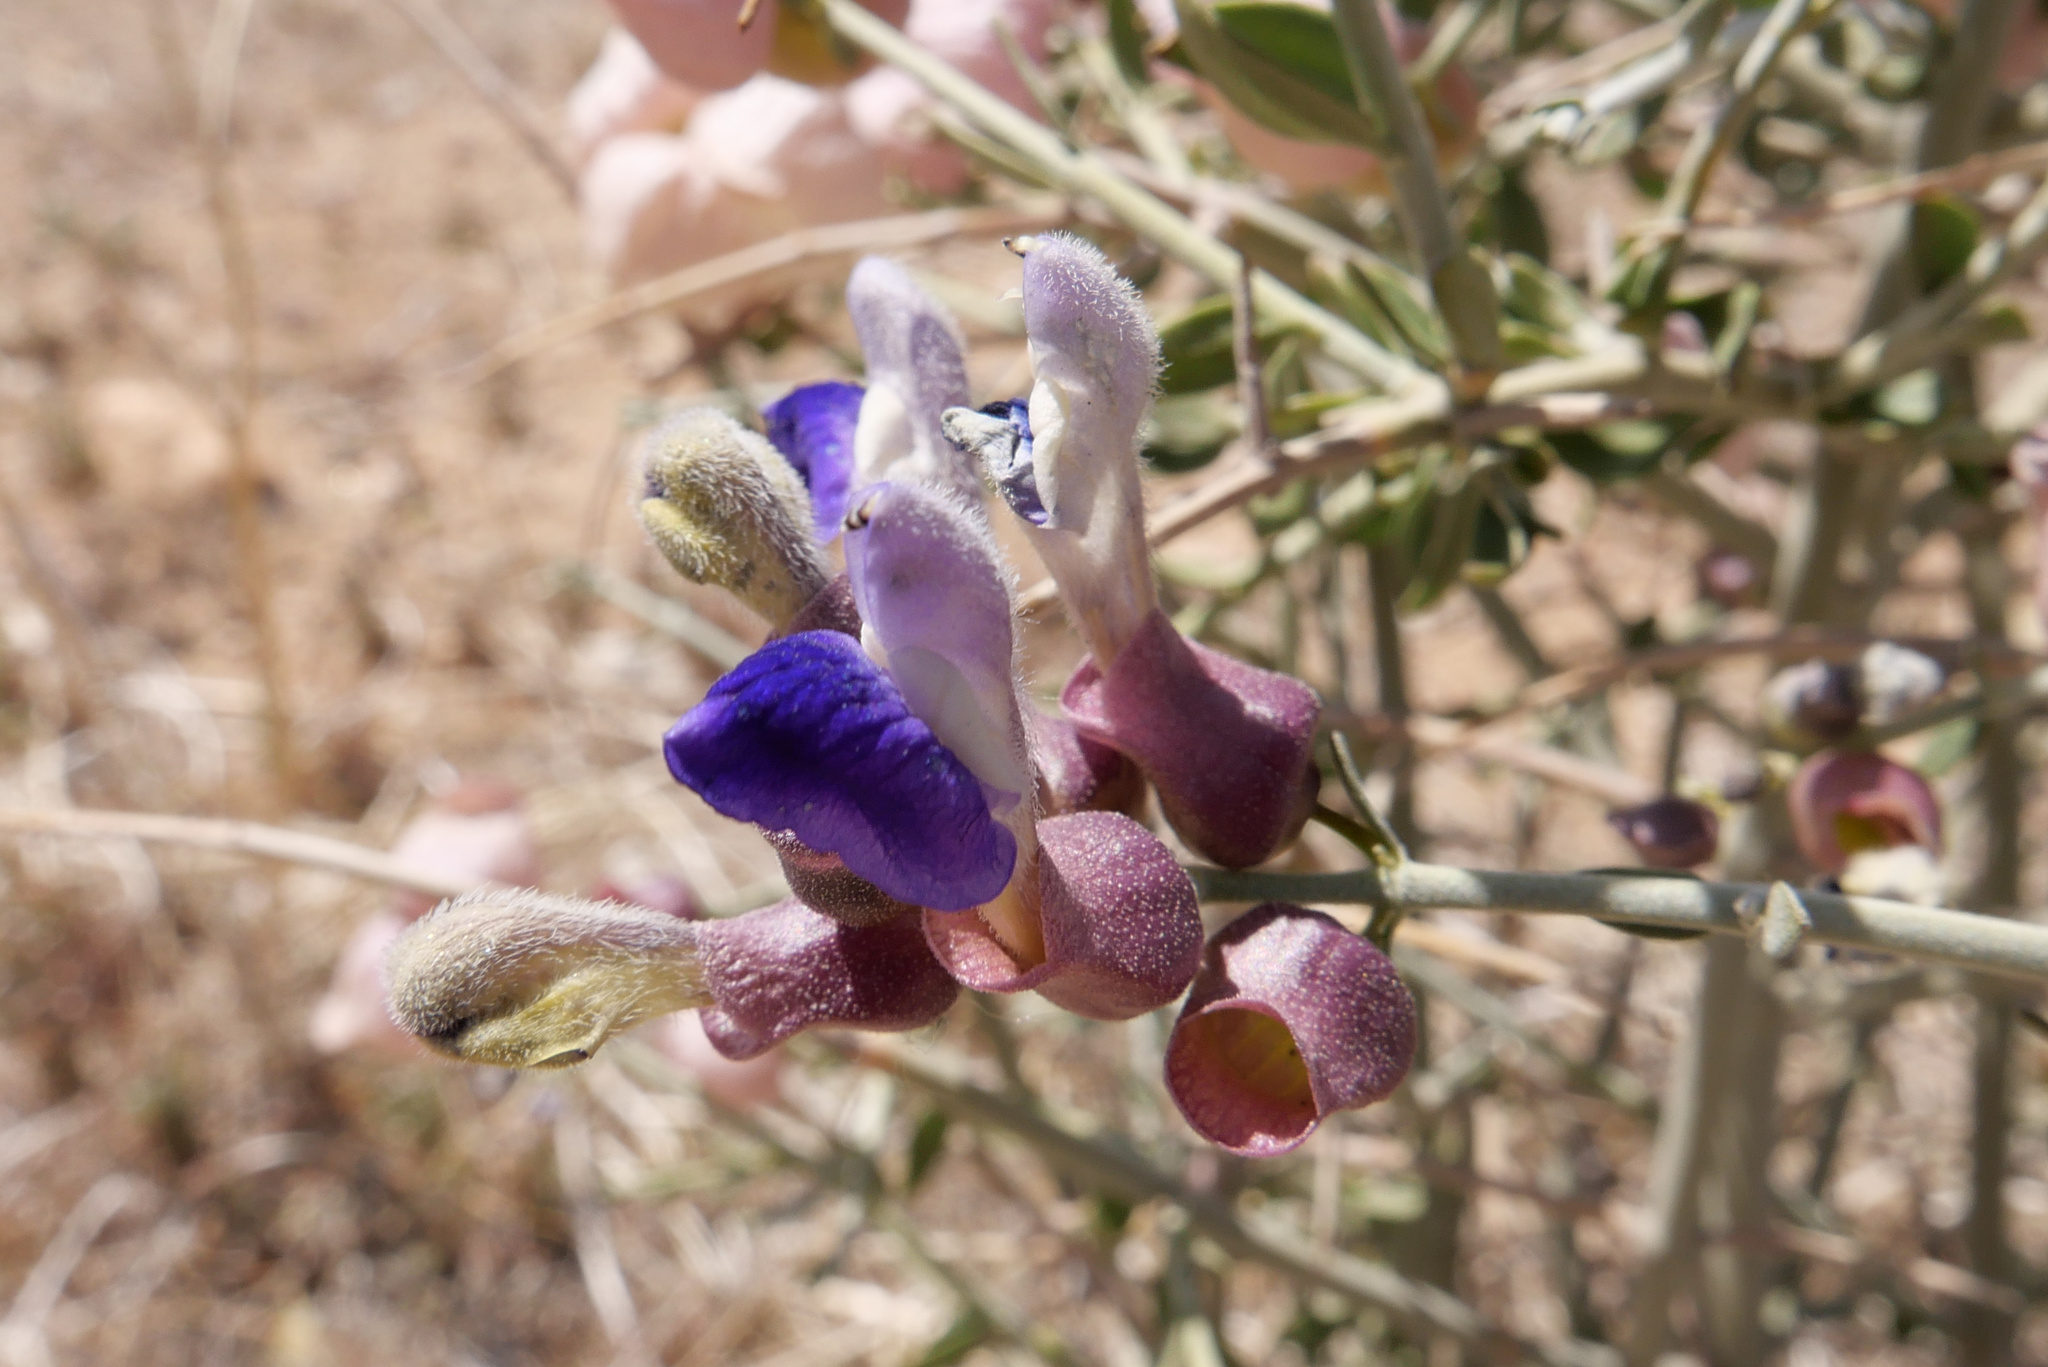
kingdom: Plantae
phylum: Tracheophyta
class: Magnoliopsida
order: Lamiales
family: Lamiaceae
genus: Scutellaria
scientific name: Scutellaria mexicana
